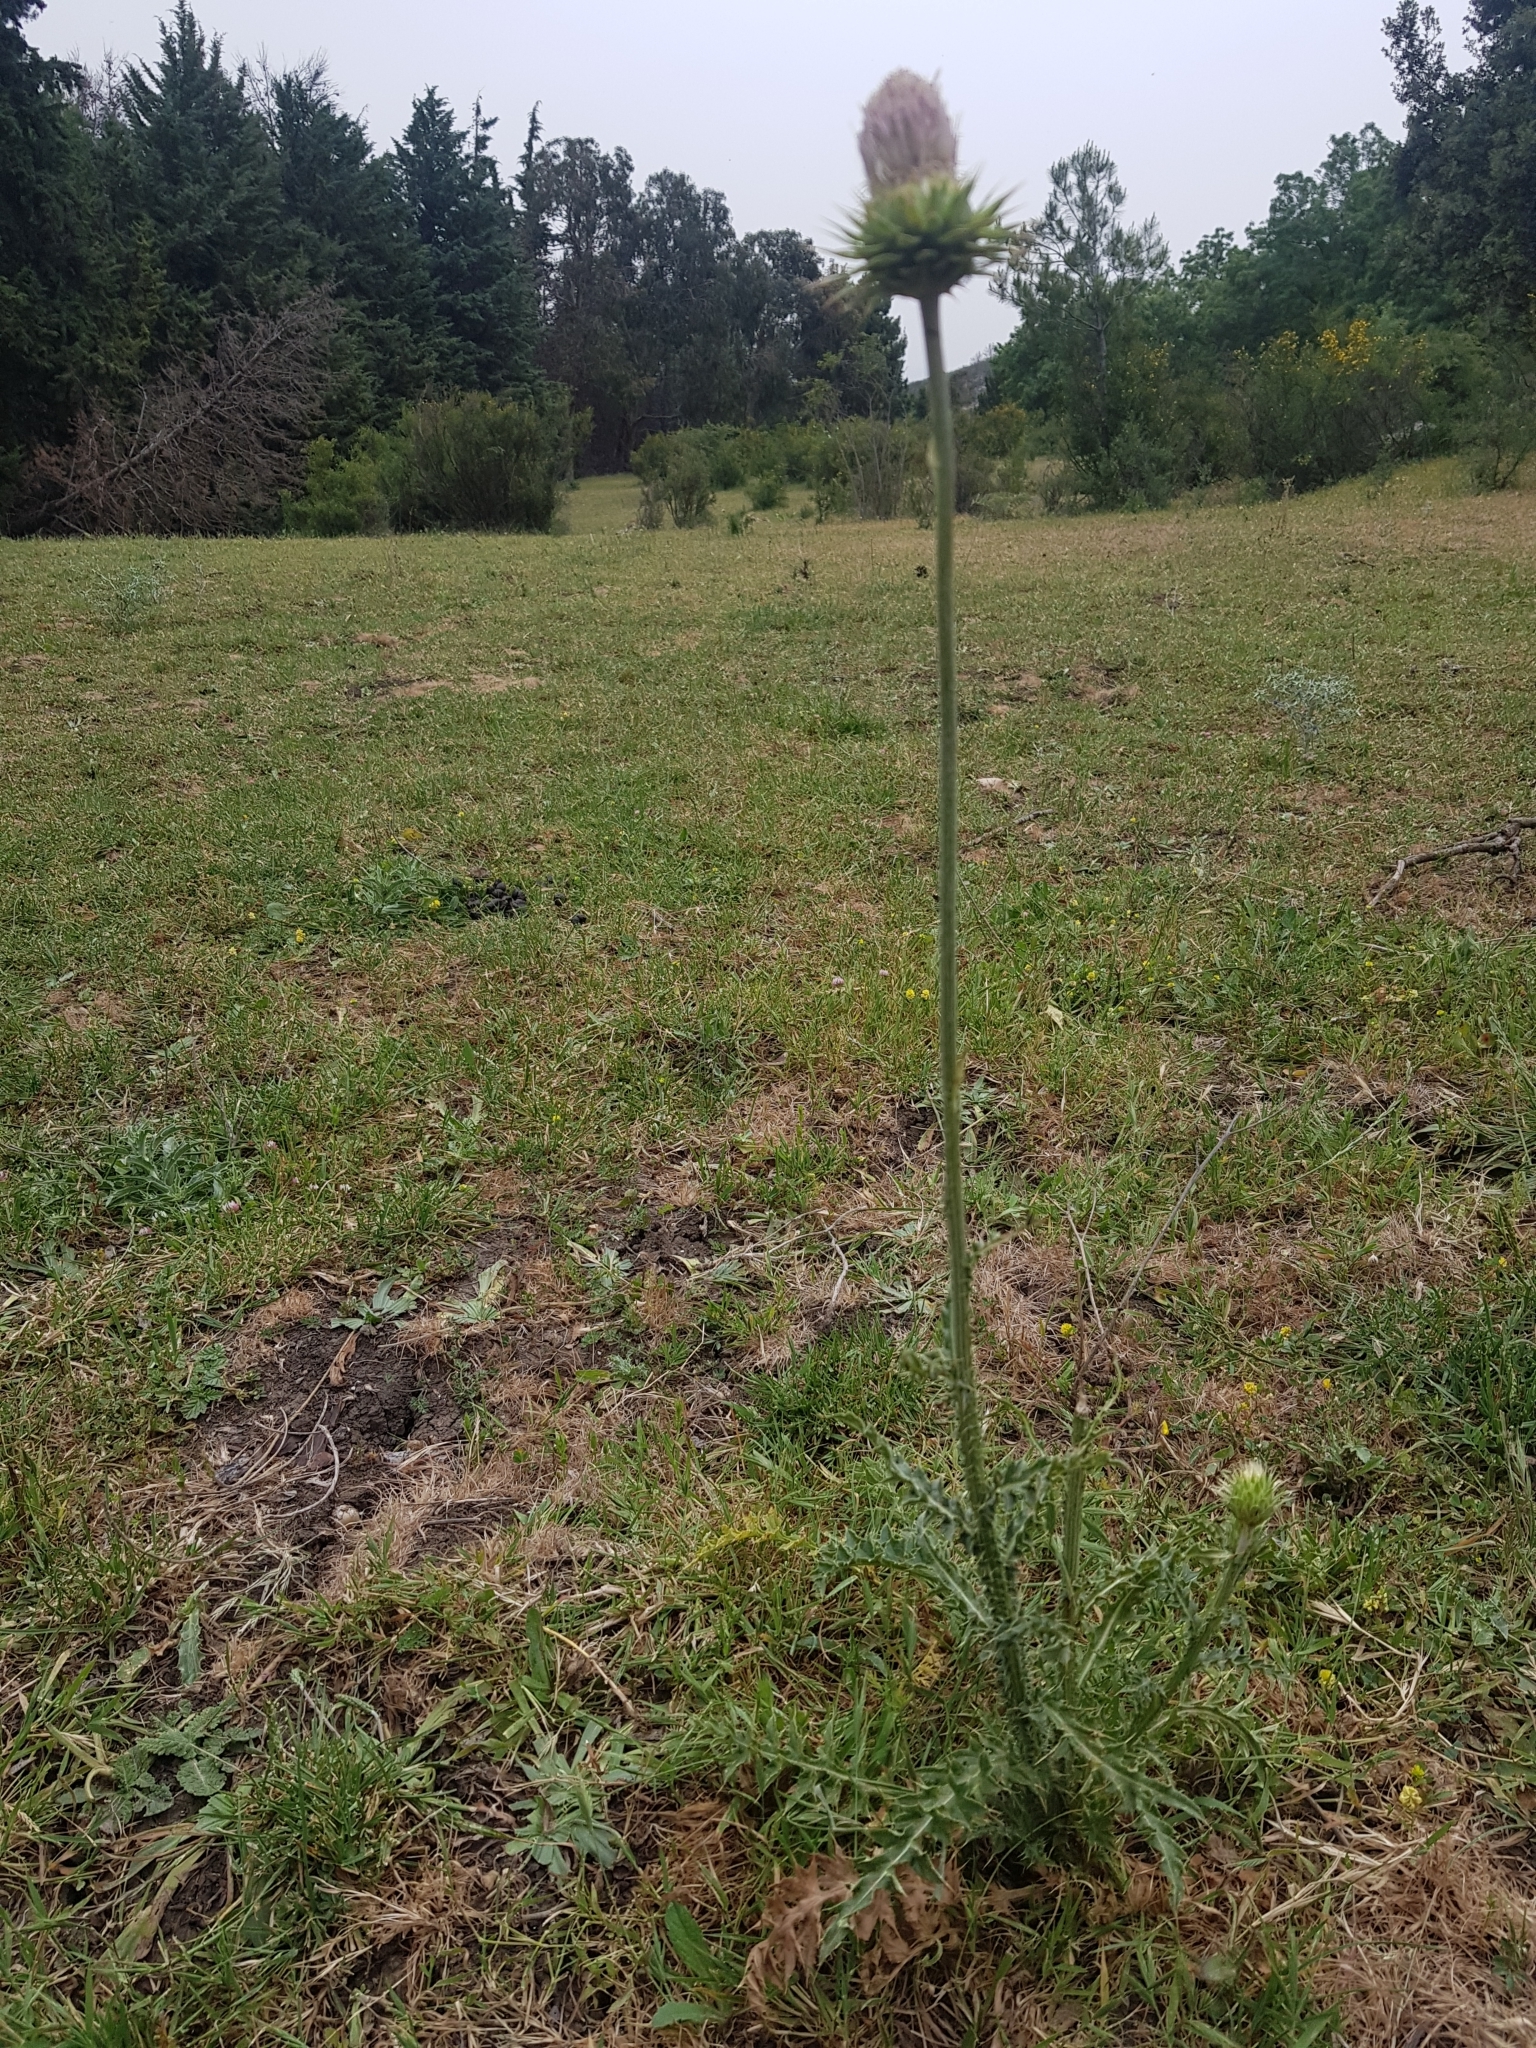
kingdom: Plantae
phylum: Tracheophyta
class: Magnoliopsida
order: Asterales
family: Asteraceae
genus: Carduus
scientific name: Carduus macrocephalus
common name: Giant thistle
